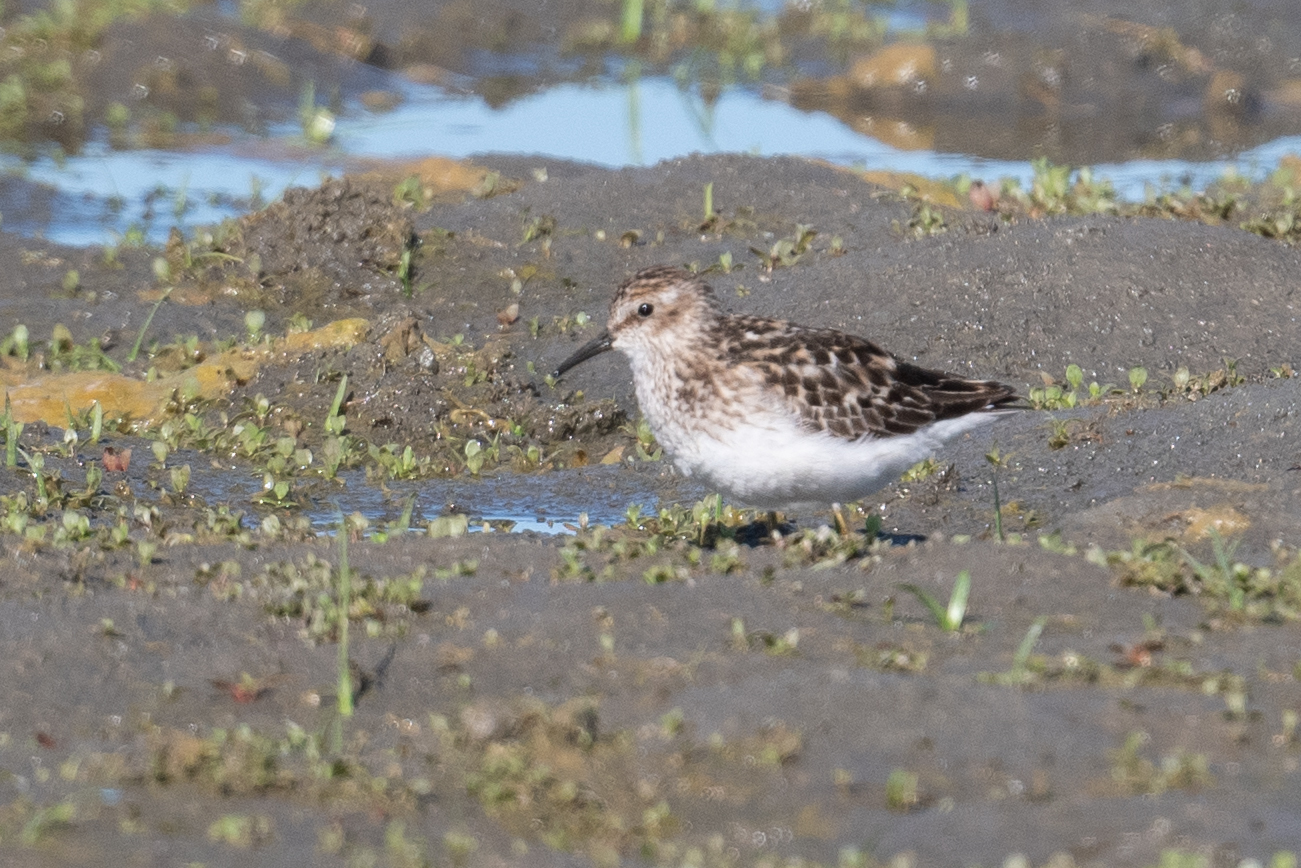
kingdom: Animalia
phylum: Chordata
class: Aves
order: Charadriiformes
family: Scolopacidae
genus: Calidris
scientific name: Calidris minutilla
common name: Least sandpiper
